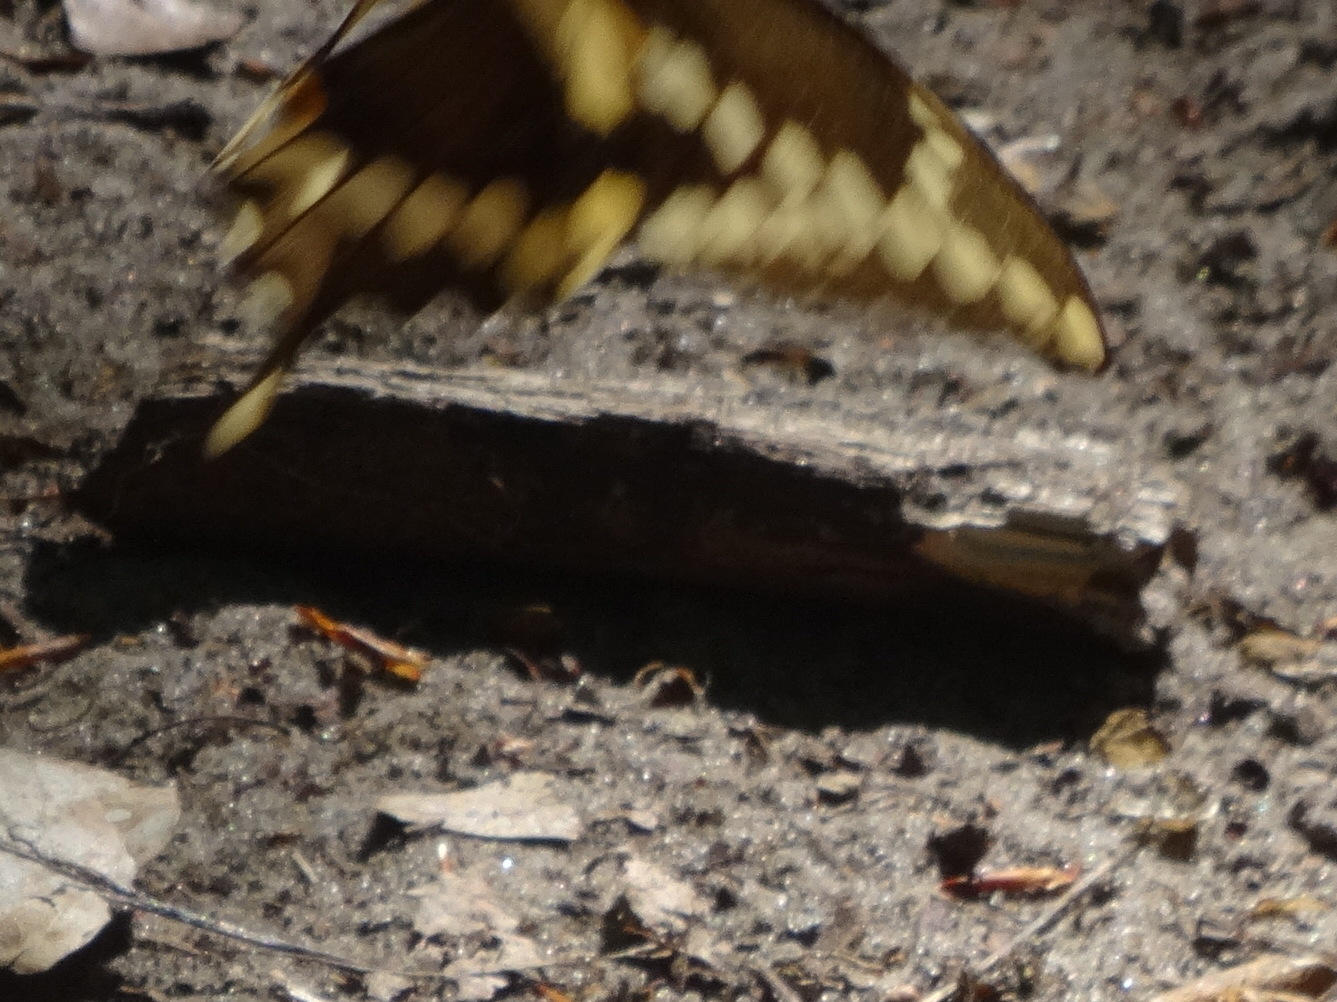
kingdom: Animalia
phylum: Arthropoda
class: Insecta
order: Lepidoptera
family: Papilionidae
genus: Papilio
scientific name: Papilio cresphontes
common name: Giant swallowtail
